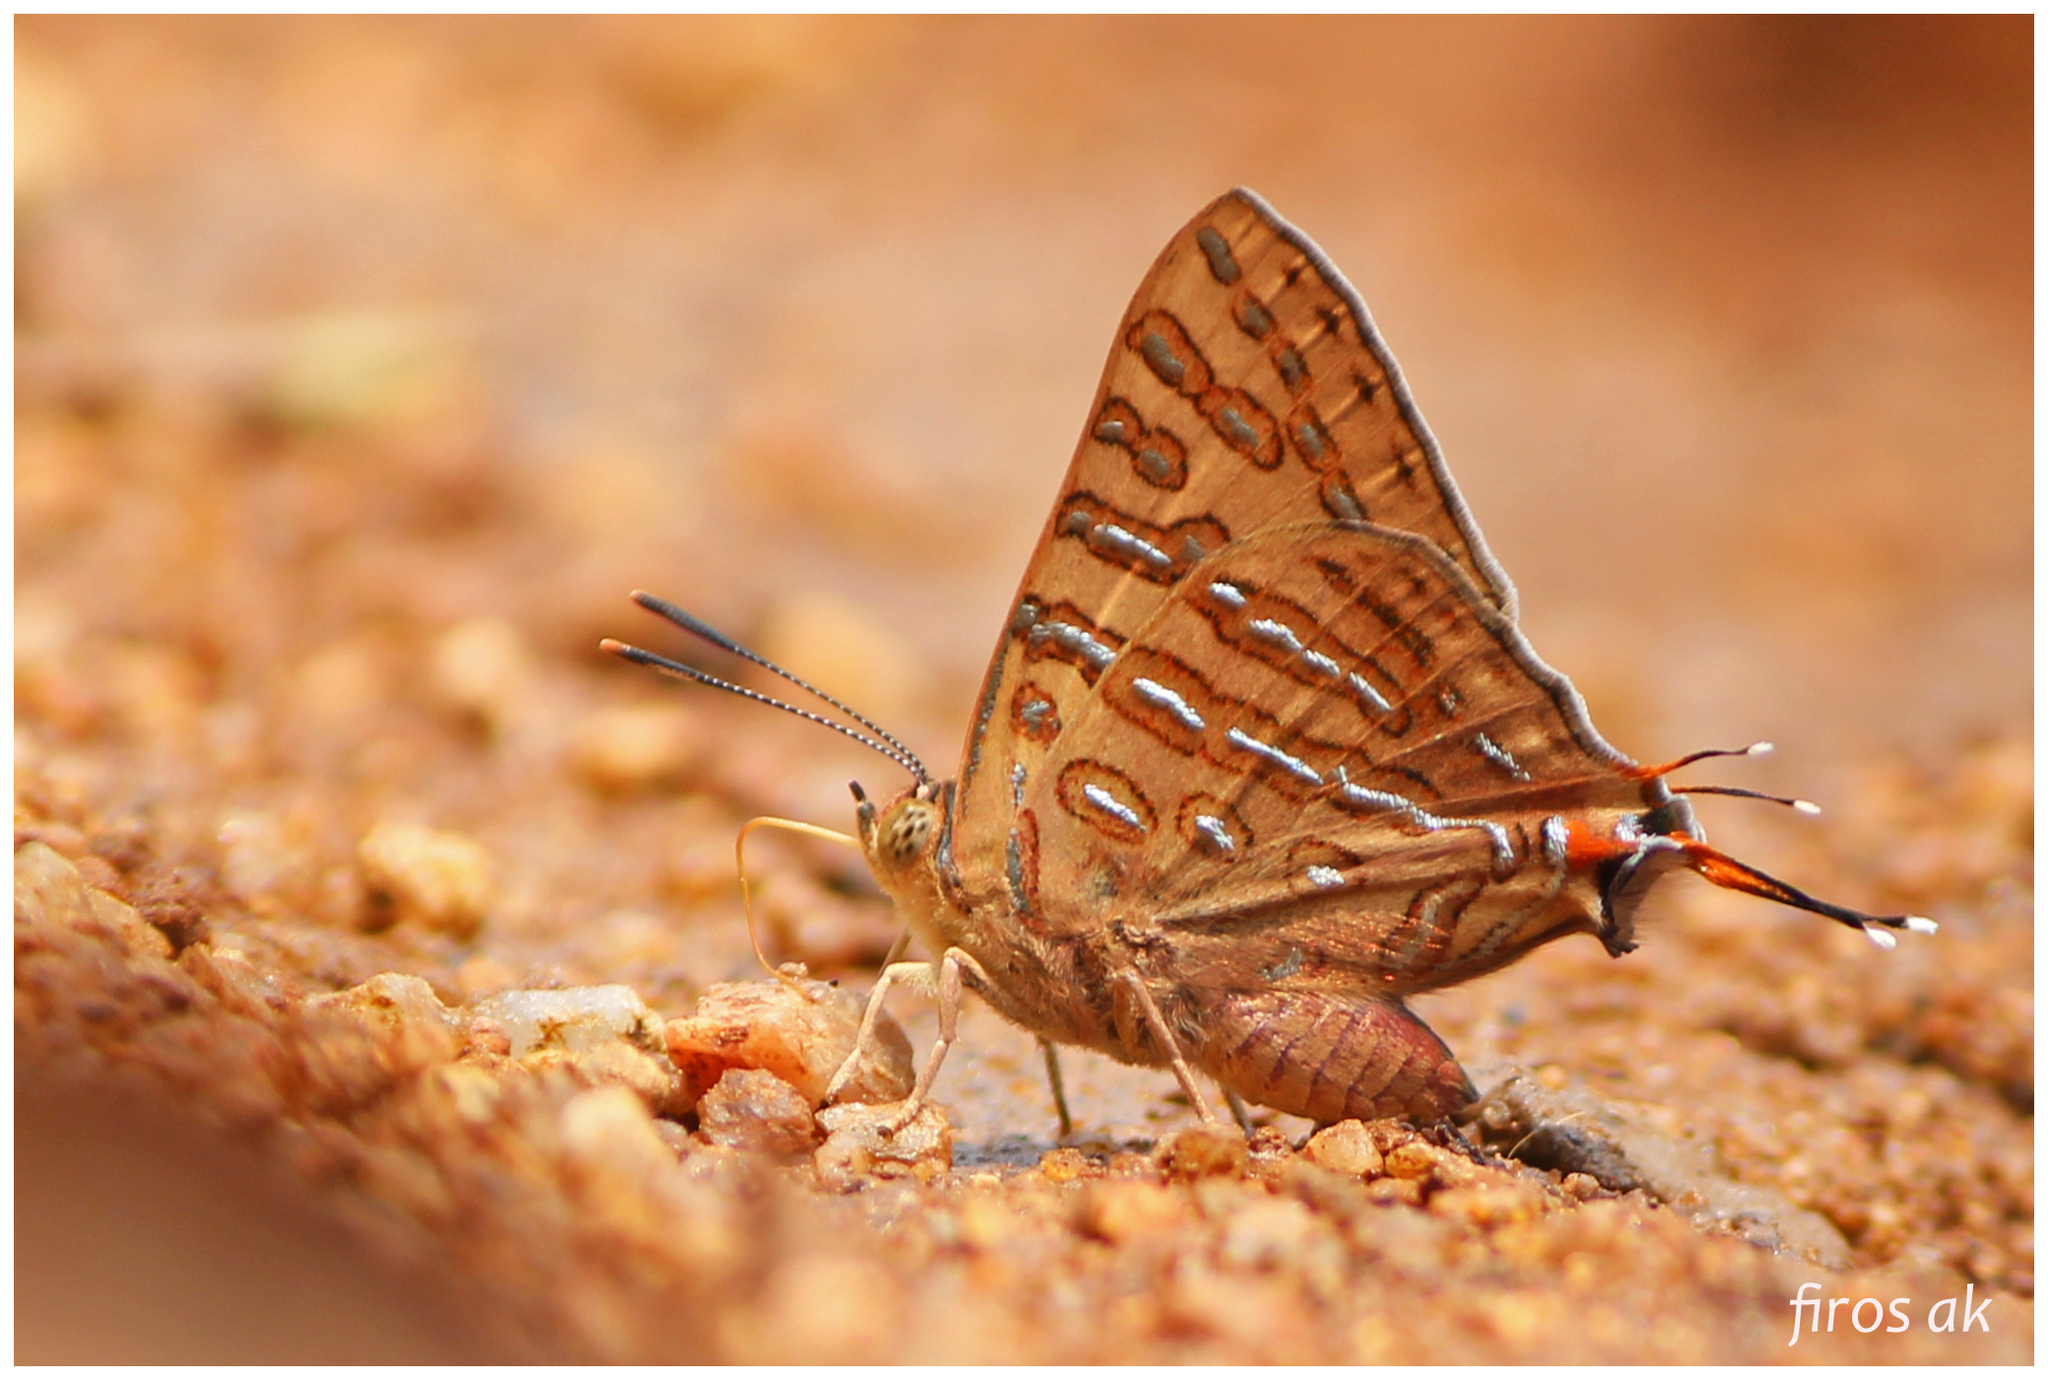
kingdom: Animalia
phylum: Arthropoda
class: Insecta
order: Lepidoptera
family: Lycaenidae
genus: Cigaritis
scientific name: Cigaritis elima
